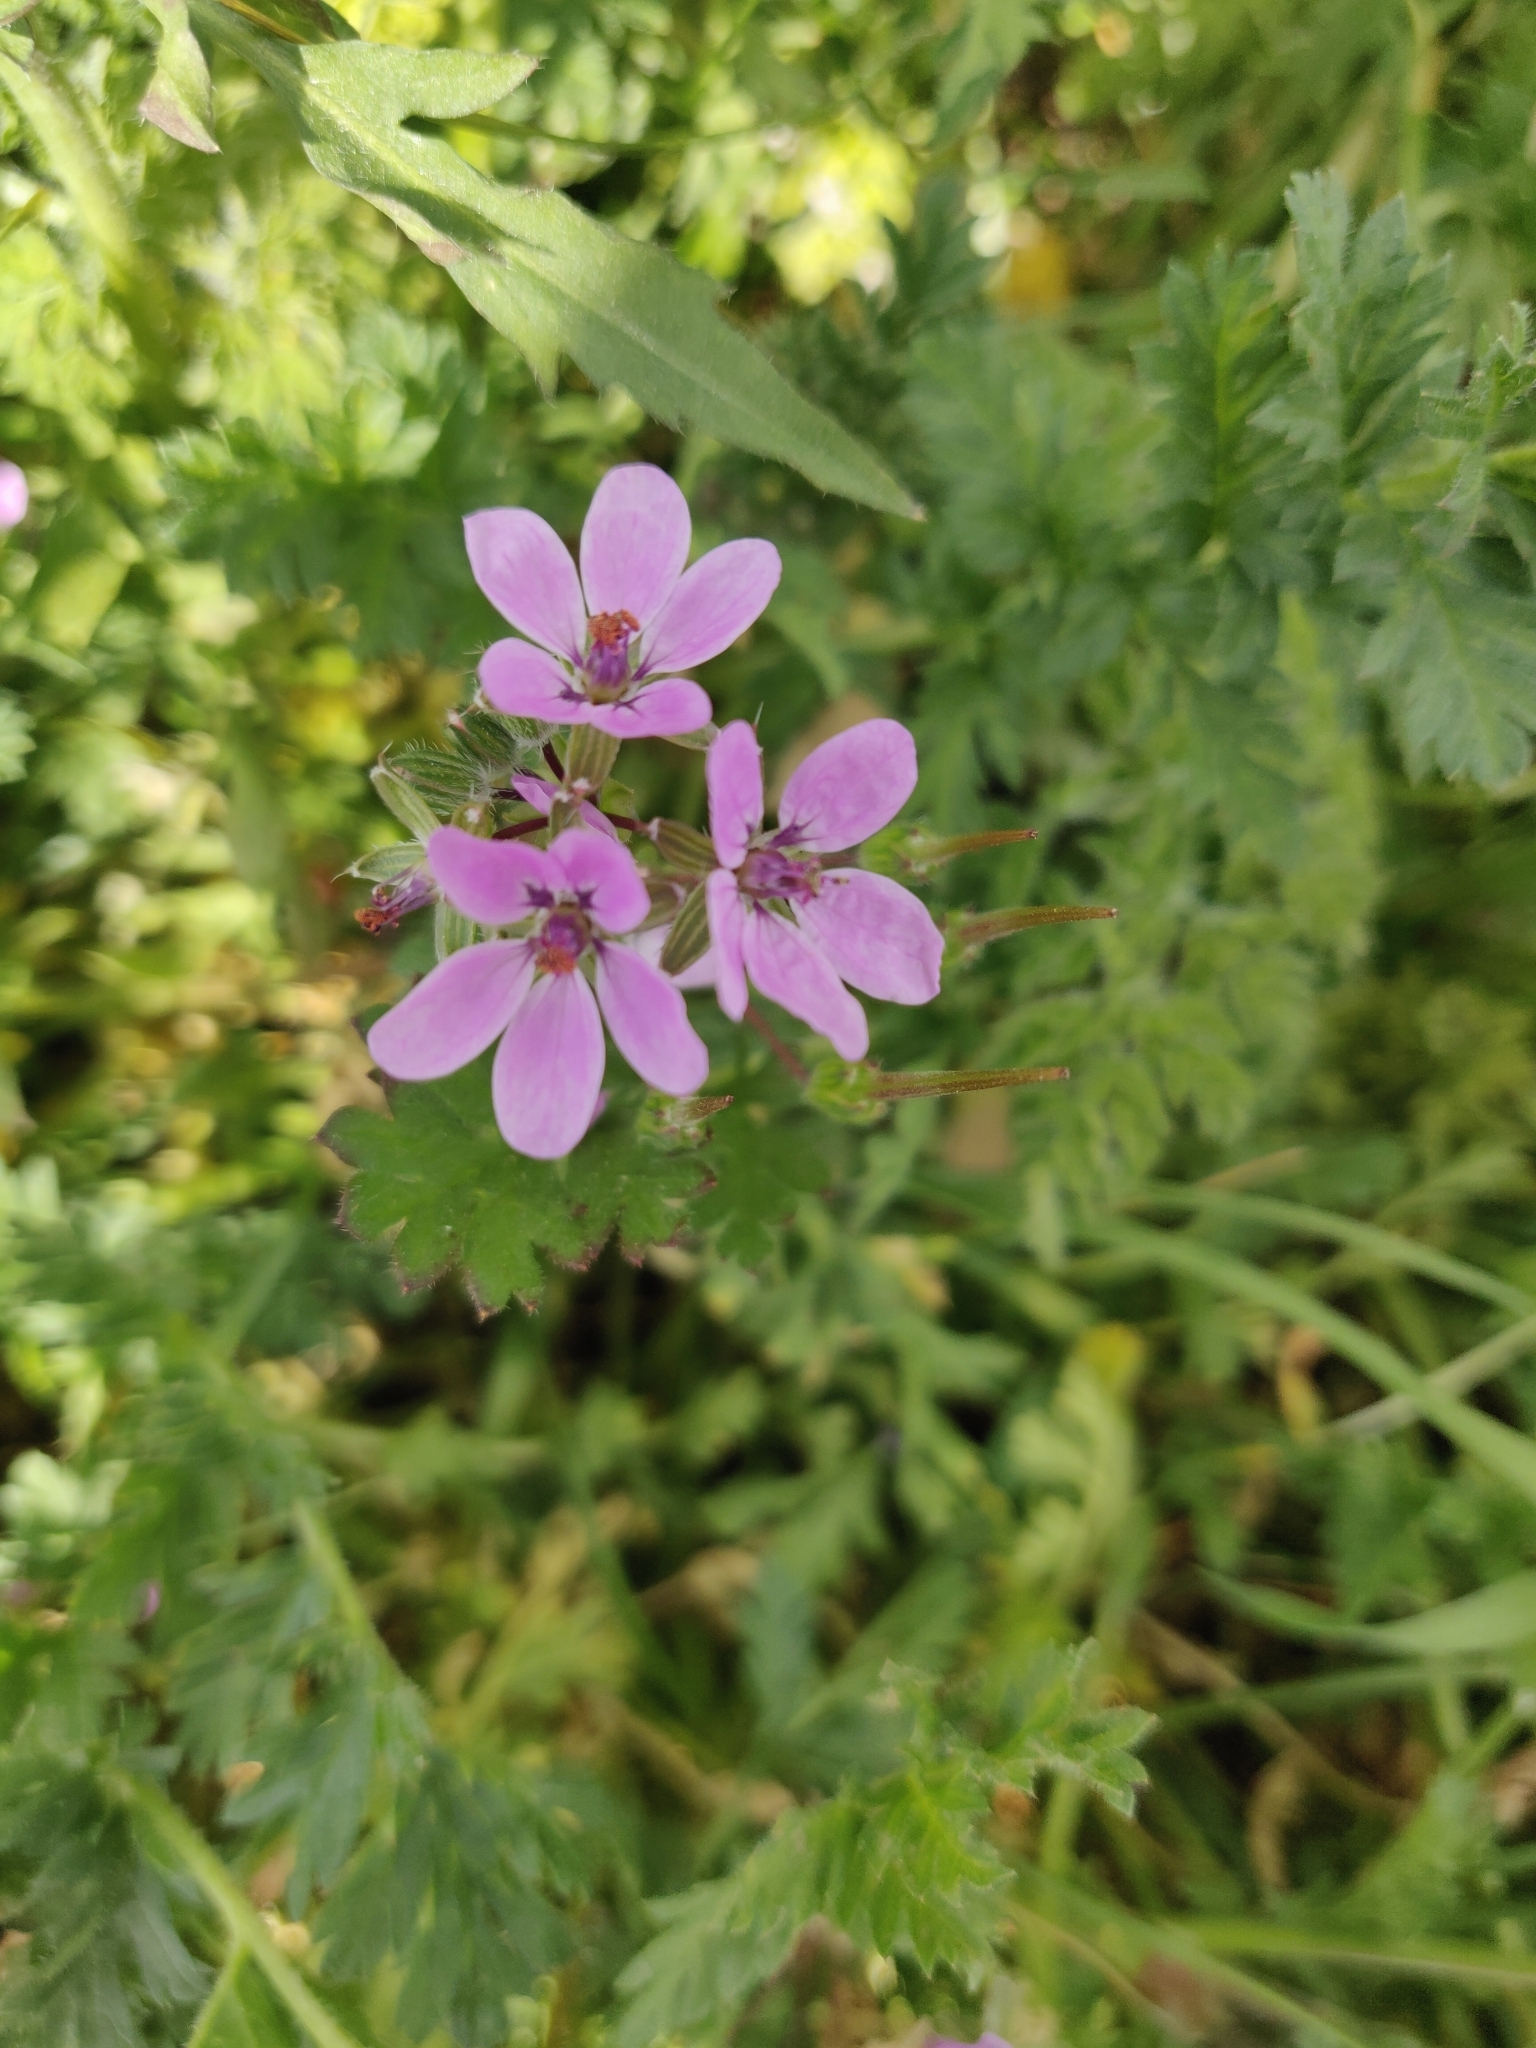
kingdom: Plantae
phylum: Tracheophyta
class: Magnoliopsida
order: Geraniales
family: Geraniaceae
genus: Erodium
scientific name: Erodium cicutarium
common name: Common stork's-bill
